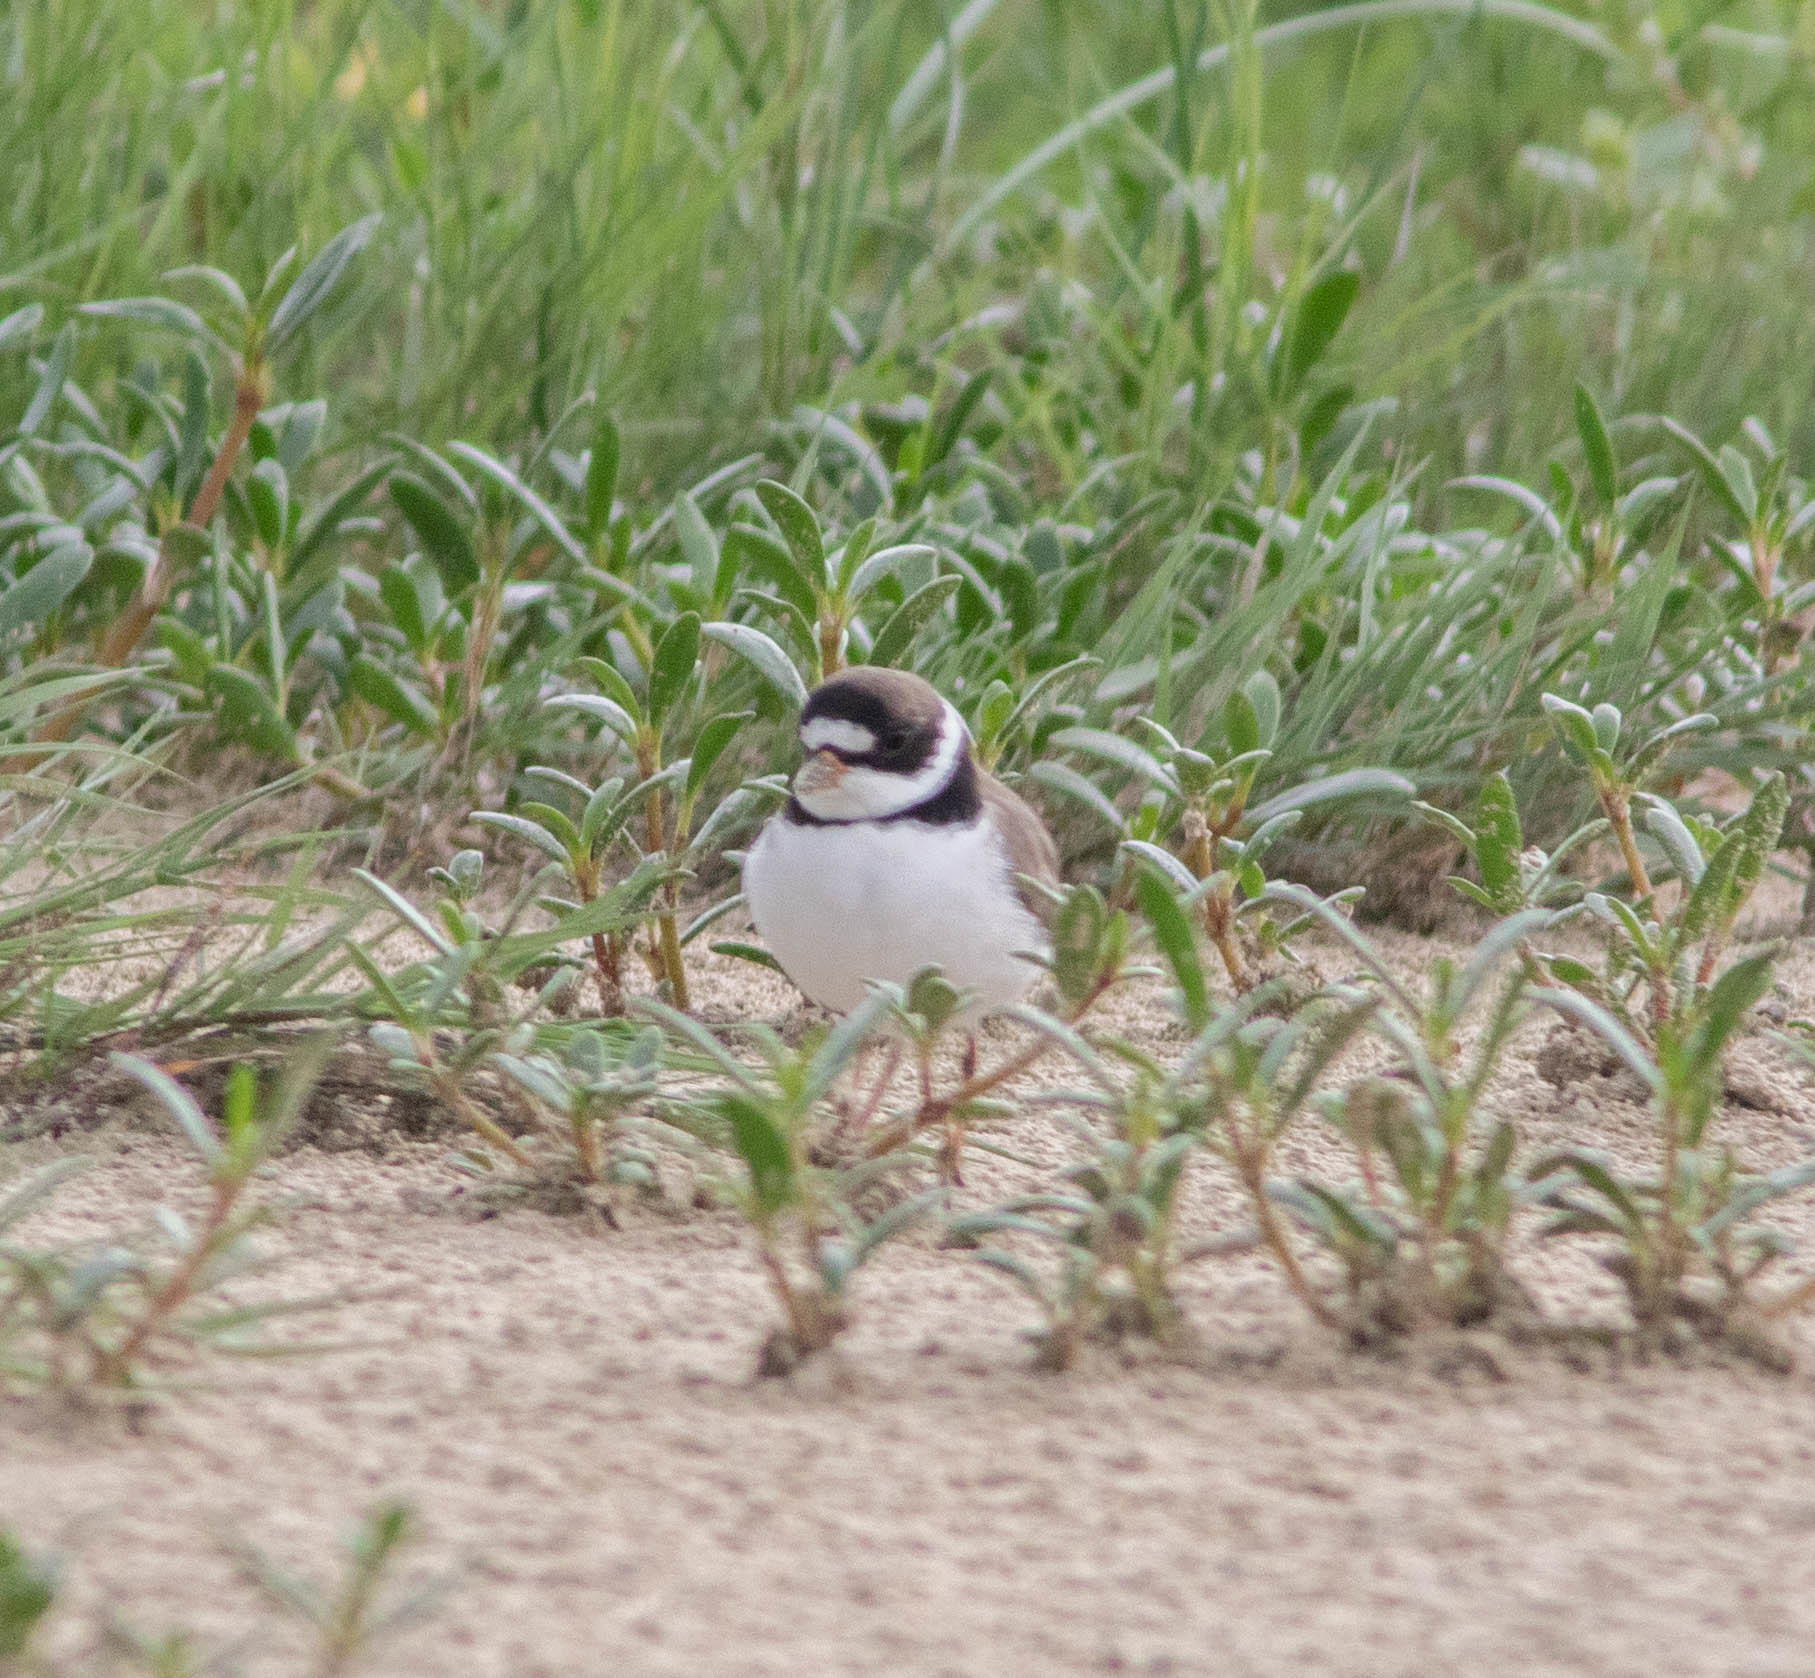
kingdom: Animalia
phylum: Chordata
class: Aves
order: Charadriiformes
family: Charadriidae
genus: Charadrius
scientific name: Charadrius semipalmatus
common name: Semipalmated plover
